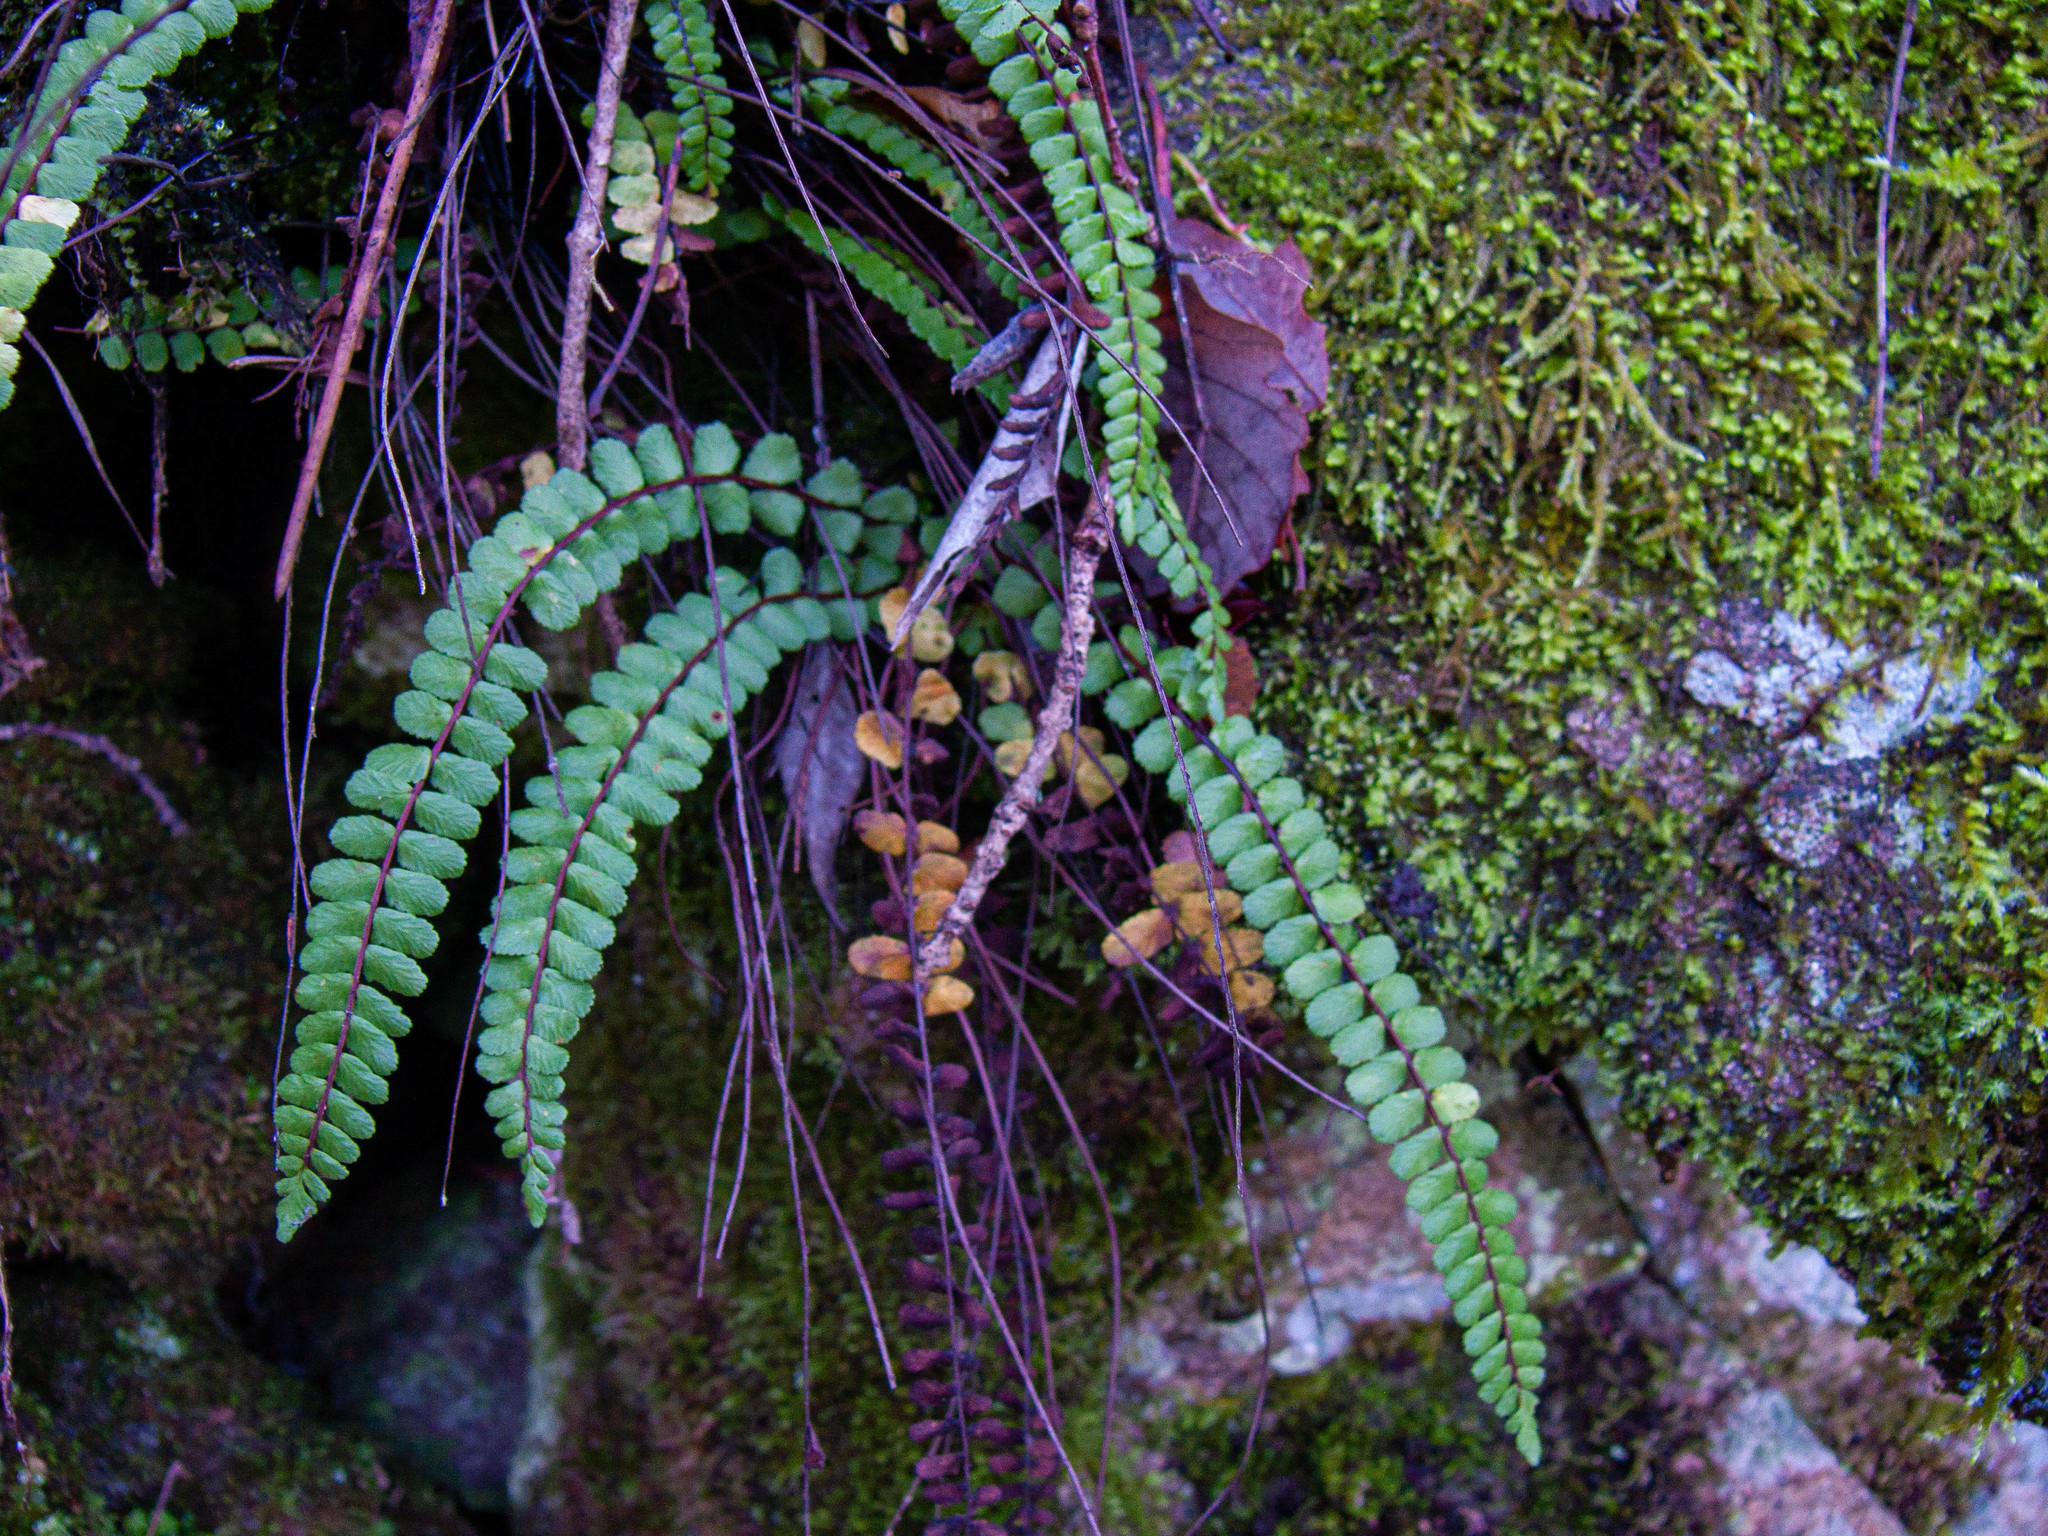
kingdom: Plantae
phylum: Tracheophyta
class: Polypodiopsida
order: Polypodiales
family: Aspleniaceae
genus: Asplenium
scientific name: Asplenium trichomanes
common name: Maidenhair spleenwort
